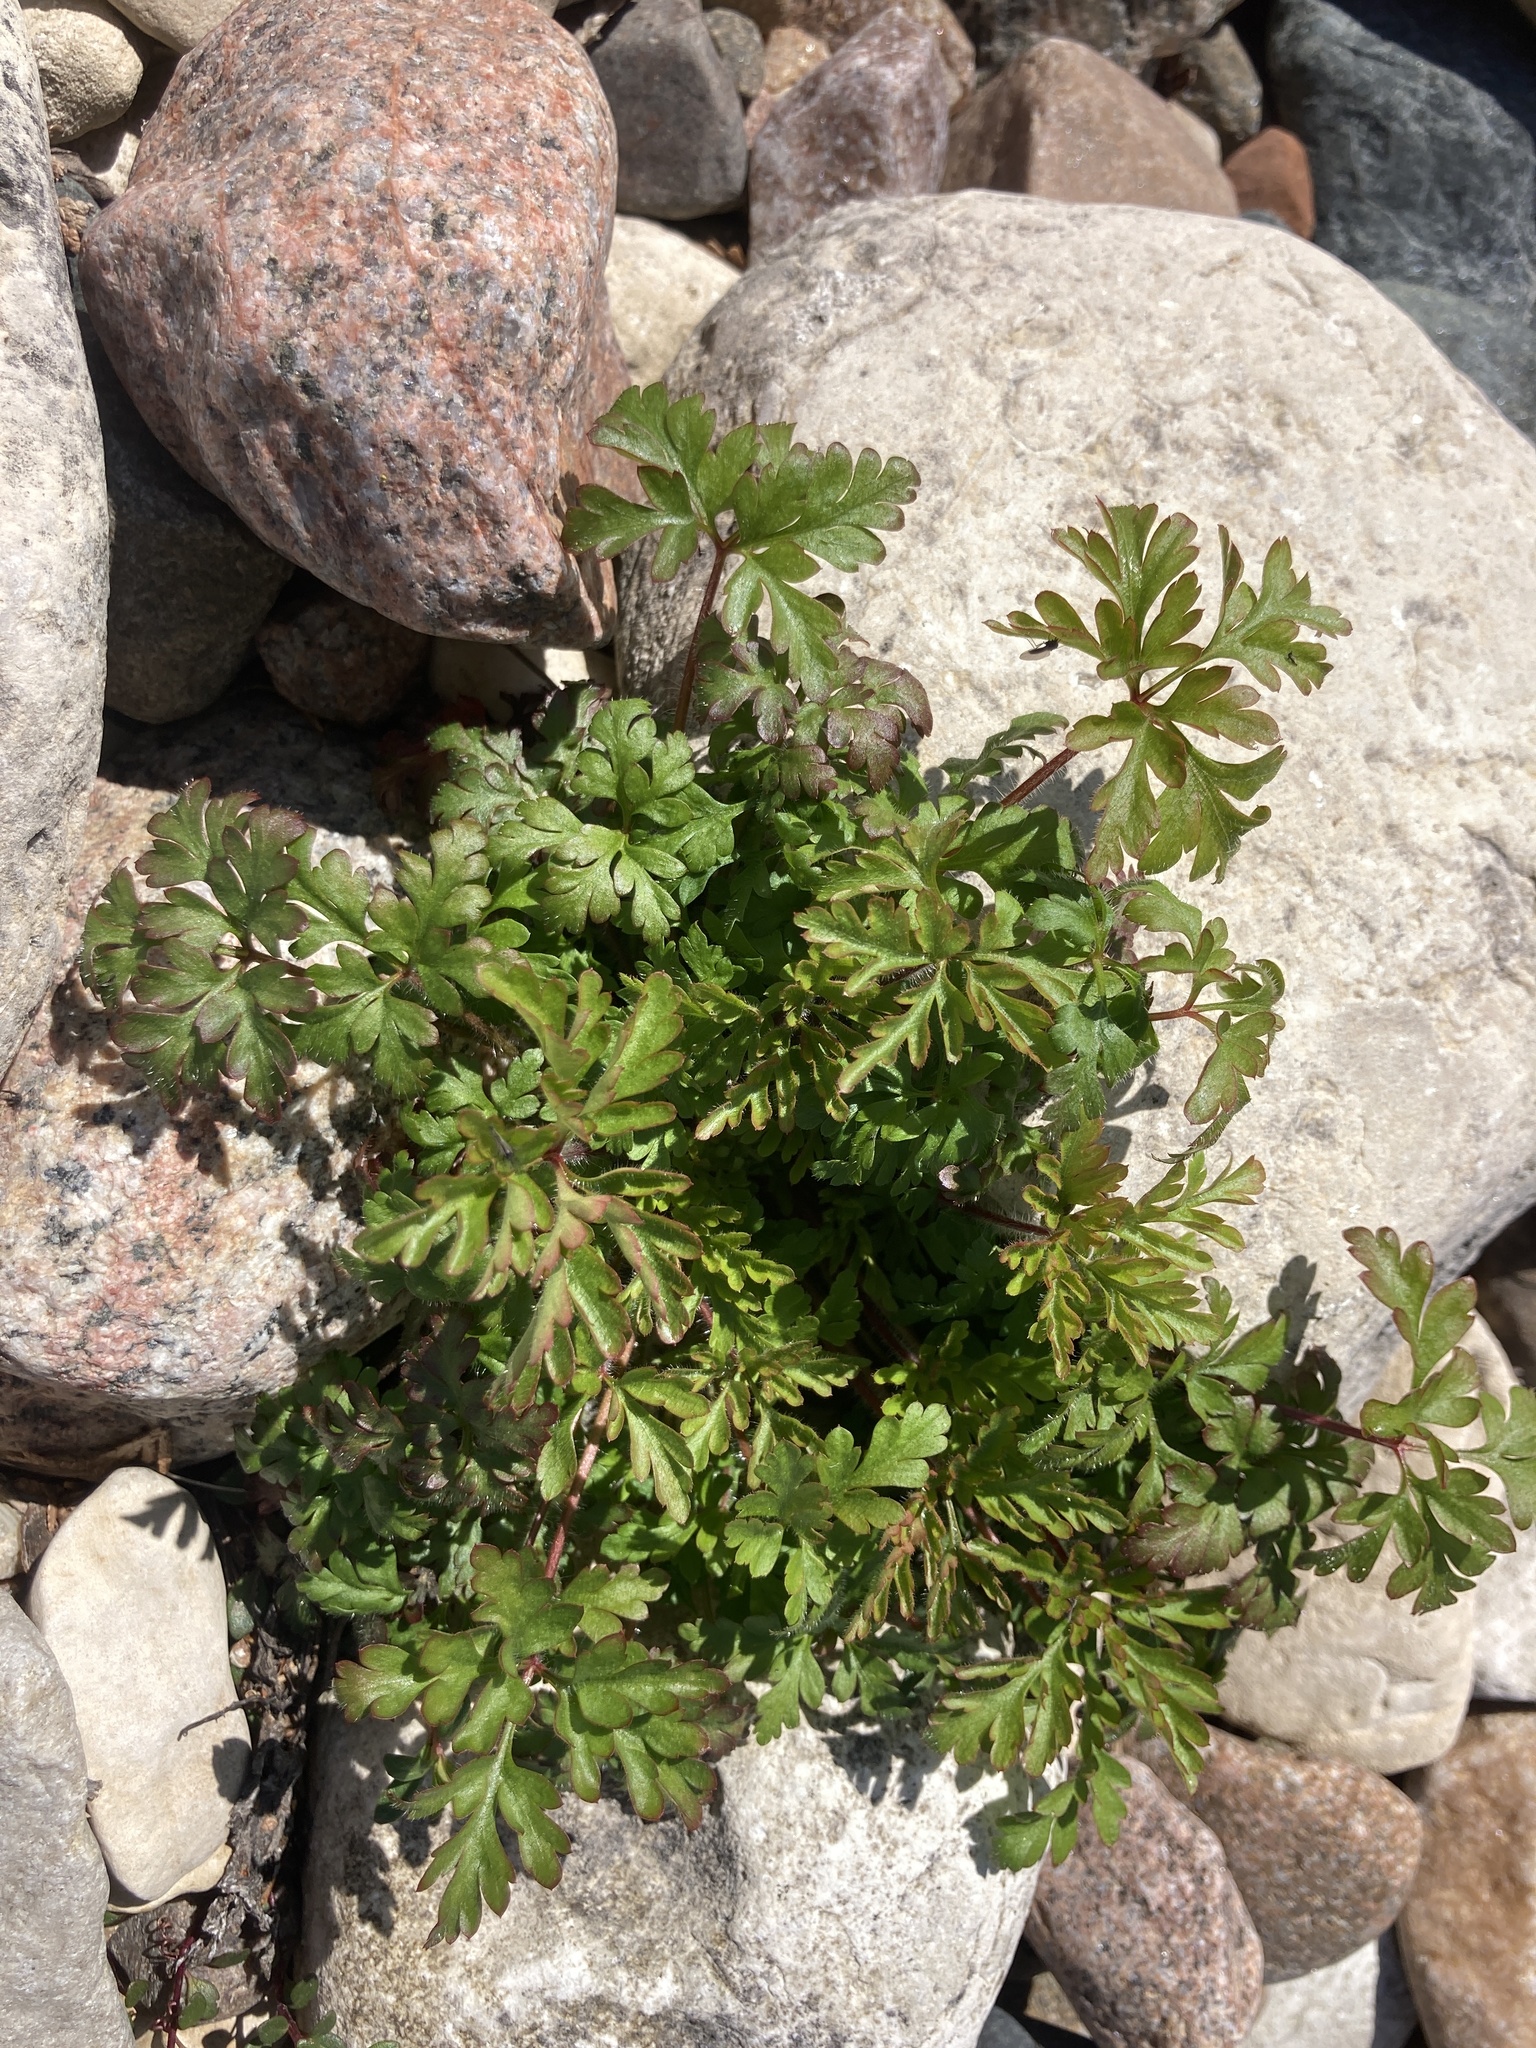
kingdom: Plantae
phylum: Tracheophyta
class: Magnoliopsida
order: Geraniales
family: Geraniaceae
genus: Geranium
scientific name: Geranium robertianum
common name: Herb-robert
